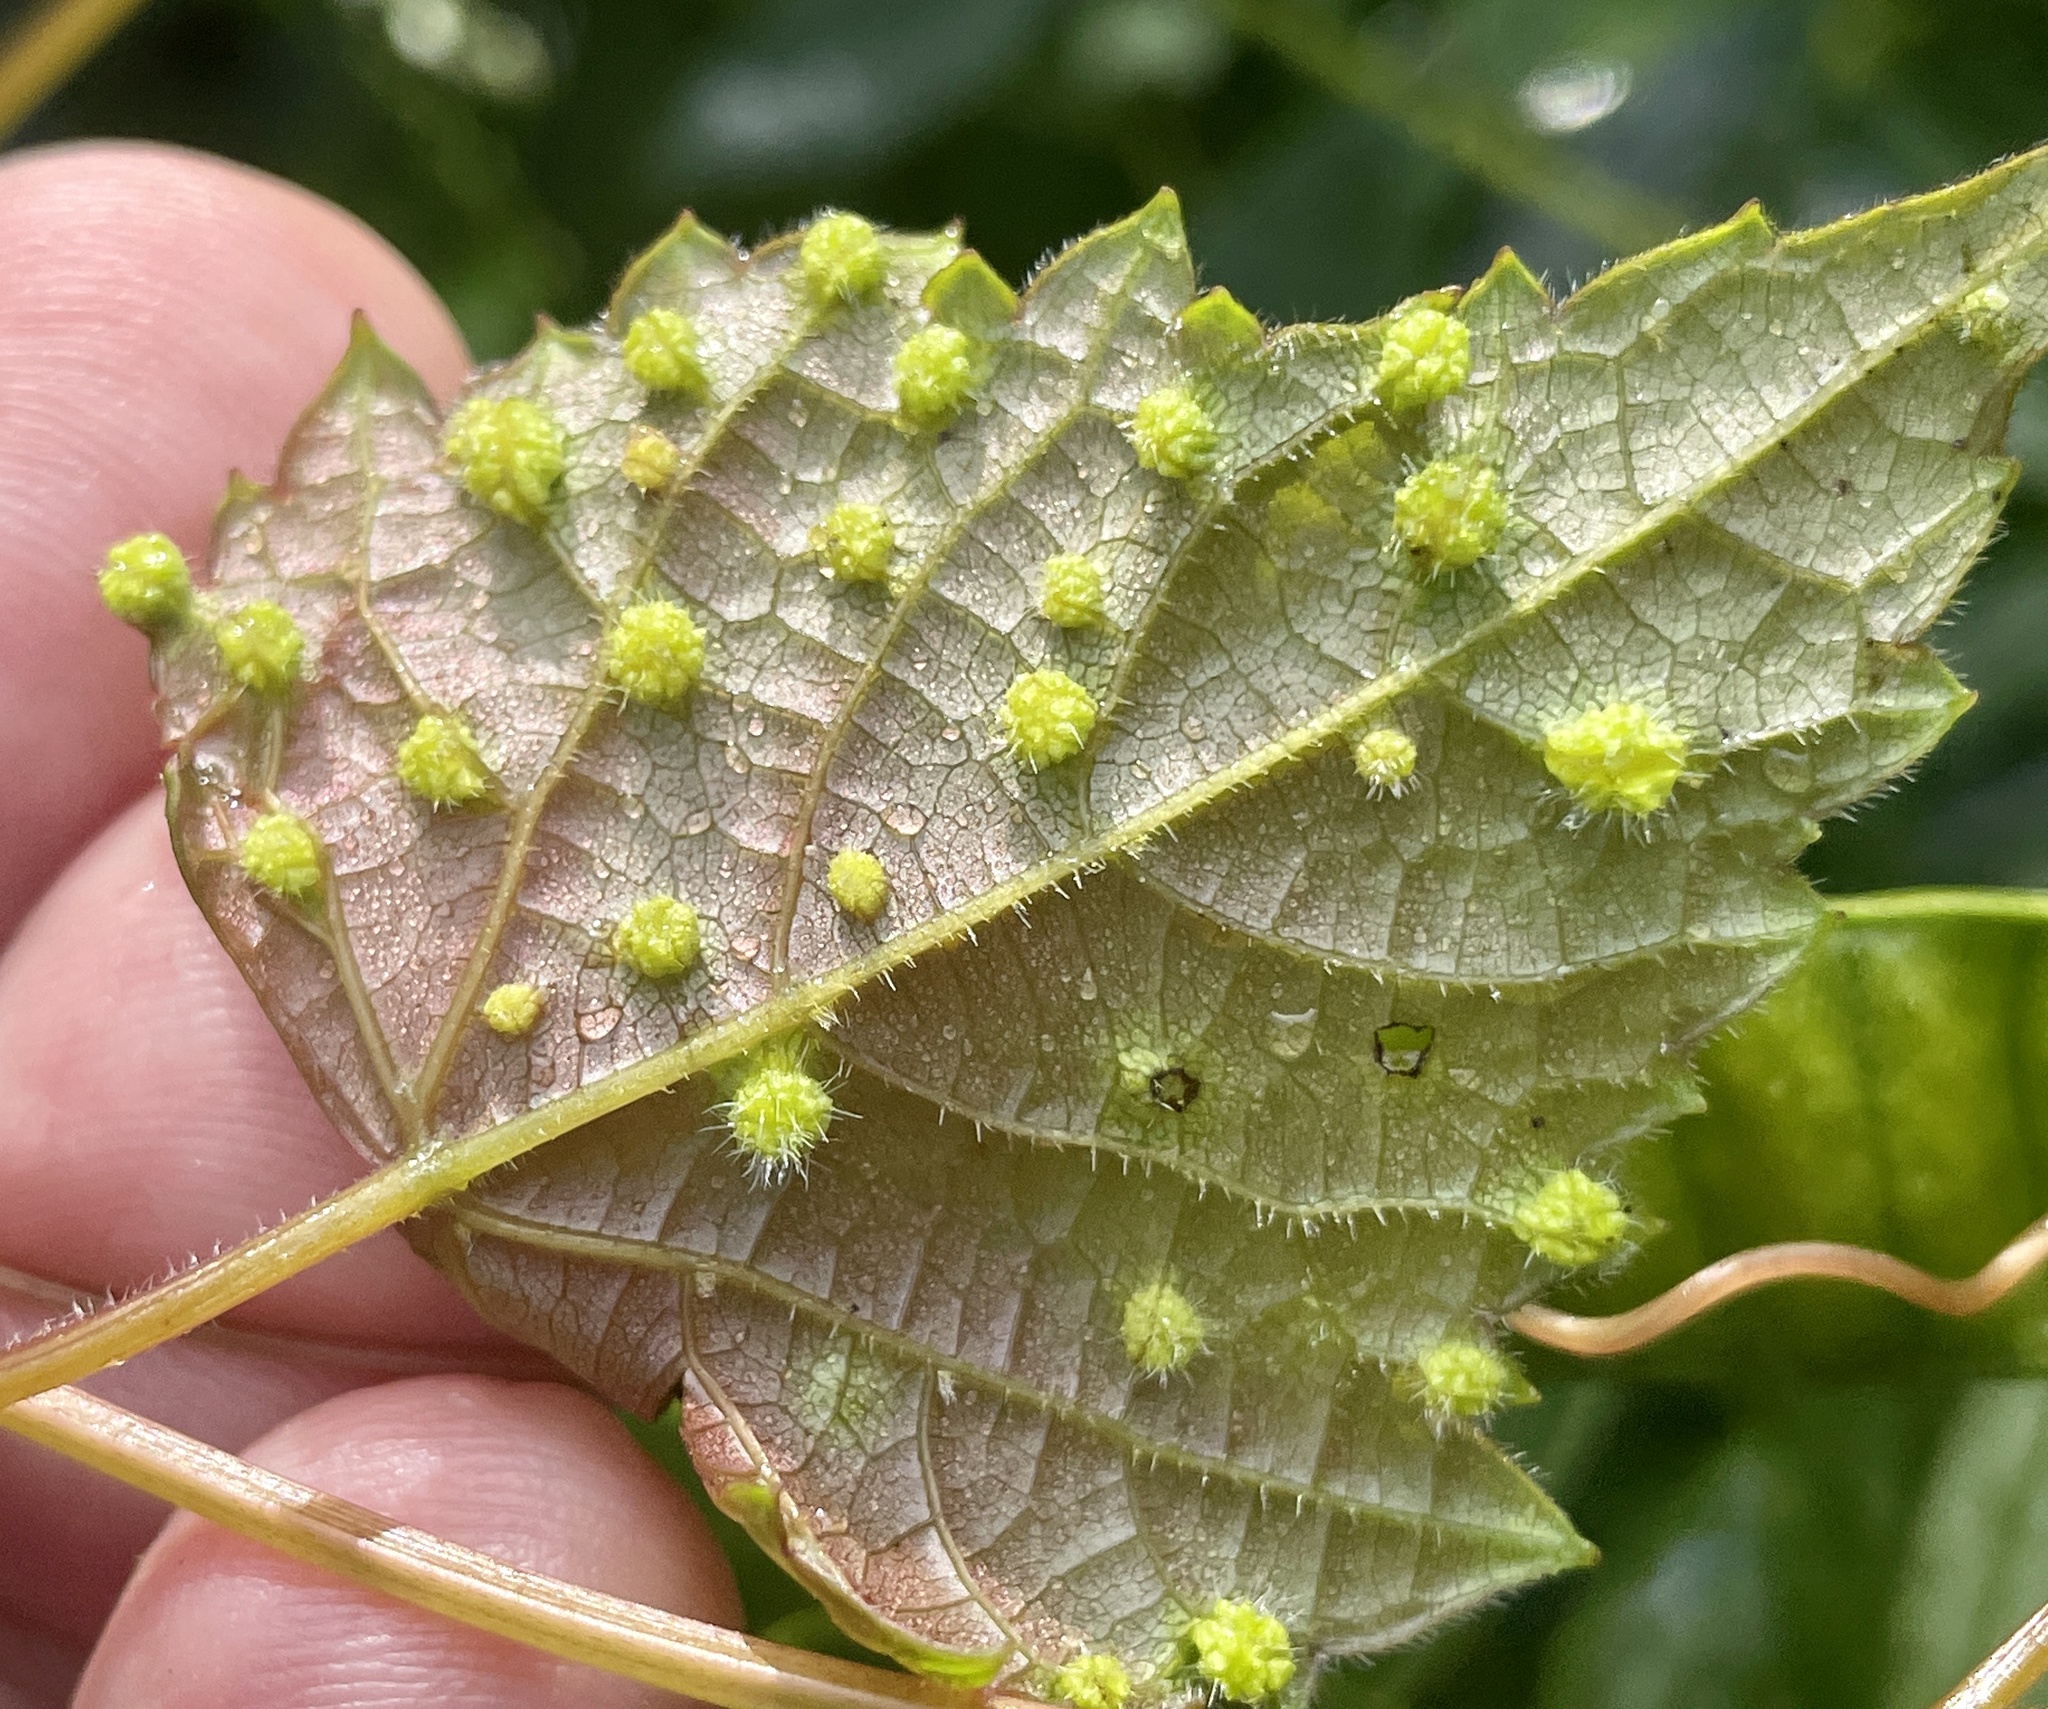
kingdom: Animalia
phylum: Arthropoda
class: Insecta
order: Hemiptera
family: Phylloxeridae
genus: Daktulosphaira
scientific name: Daktulosphaira vitifoliae
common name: Grape phylloxera
